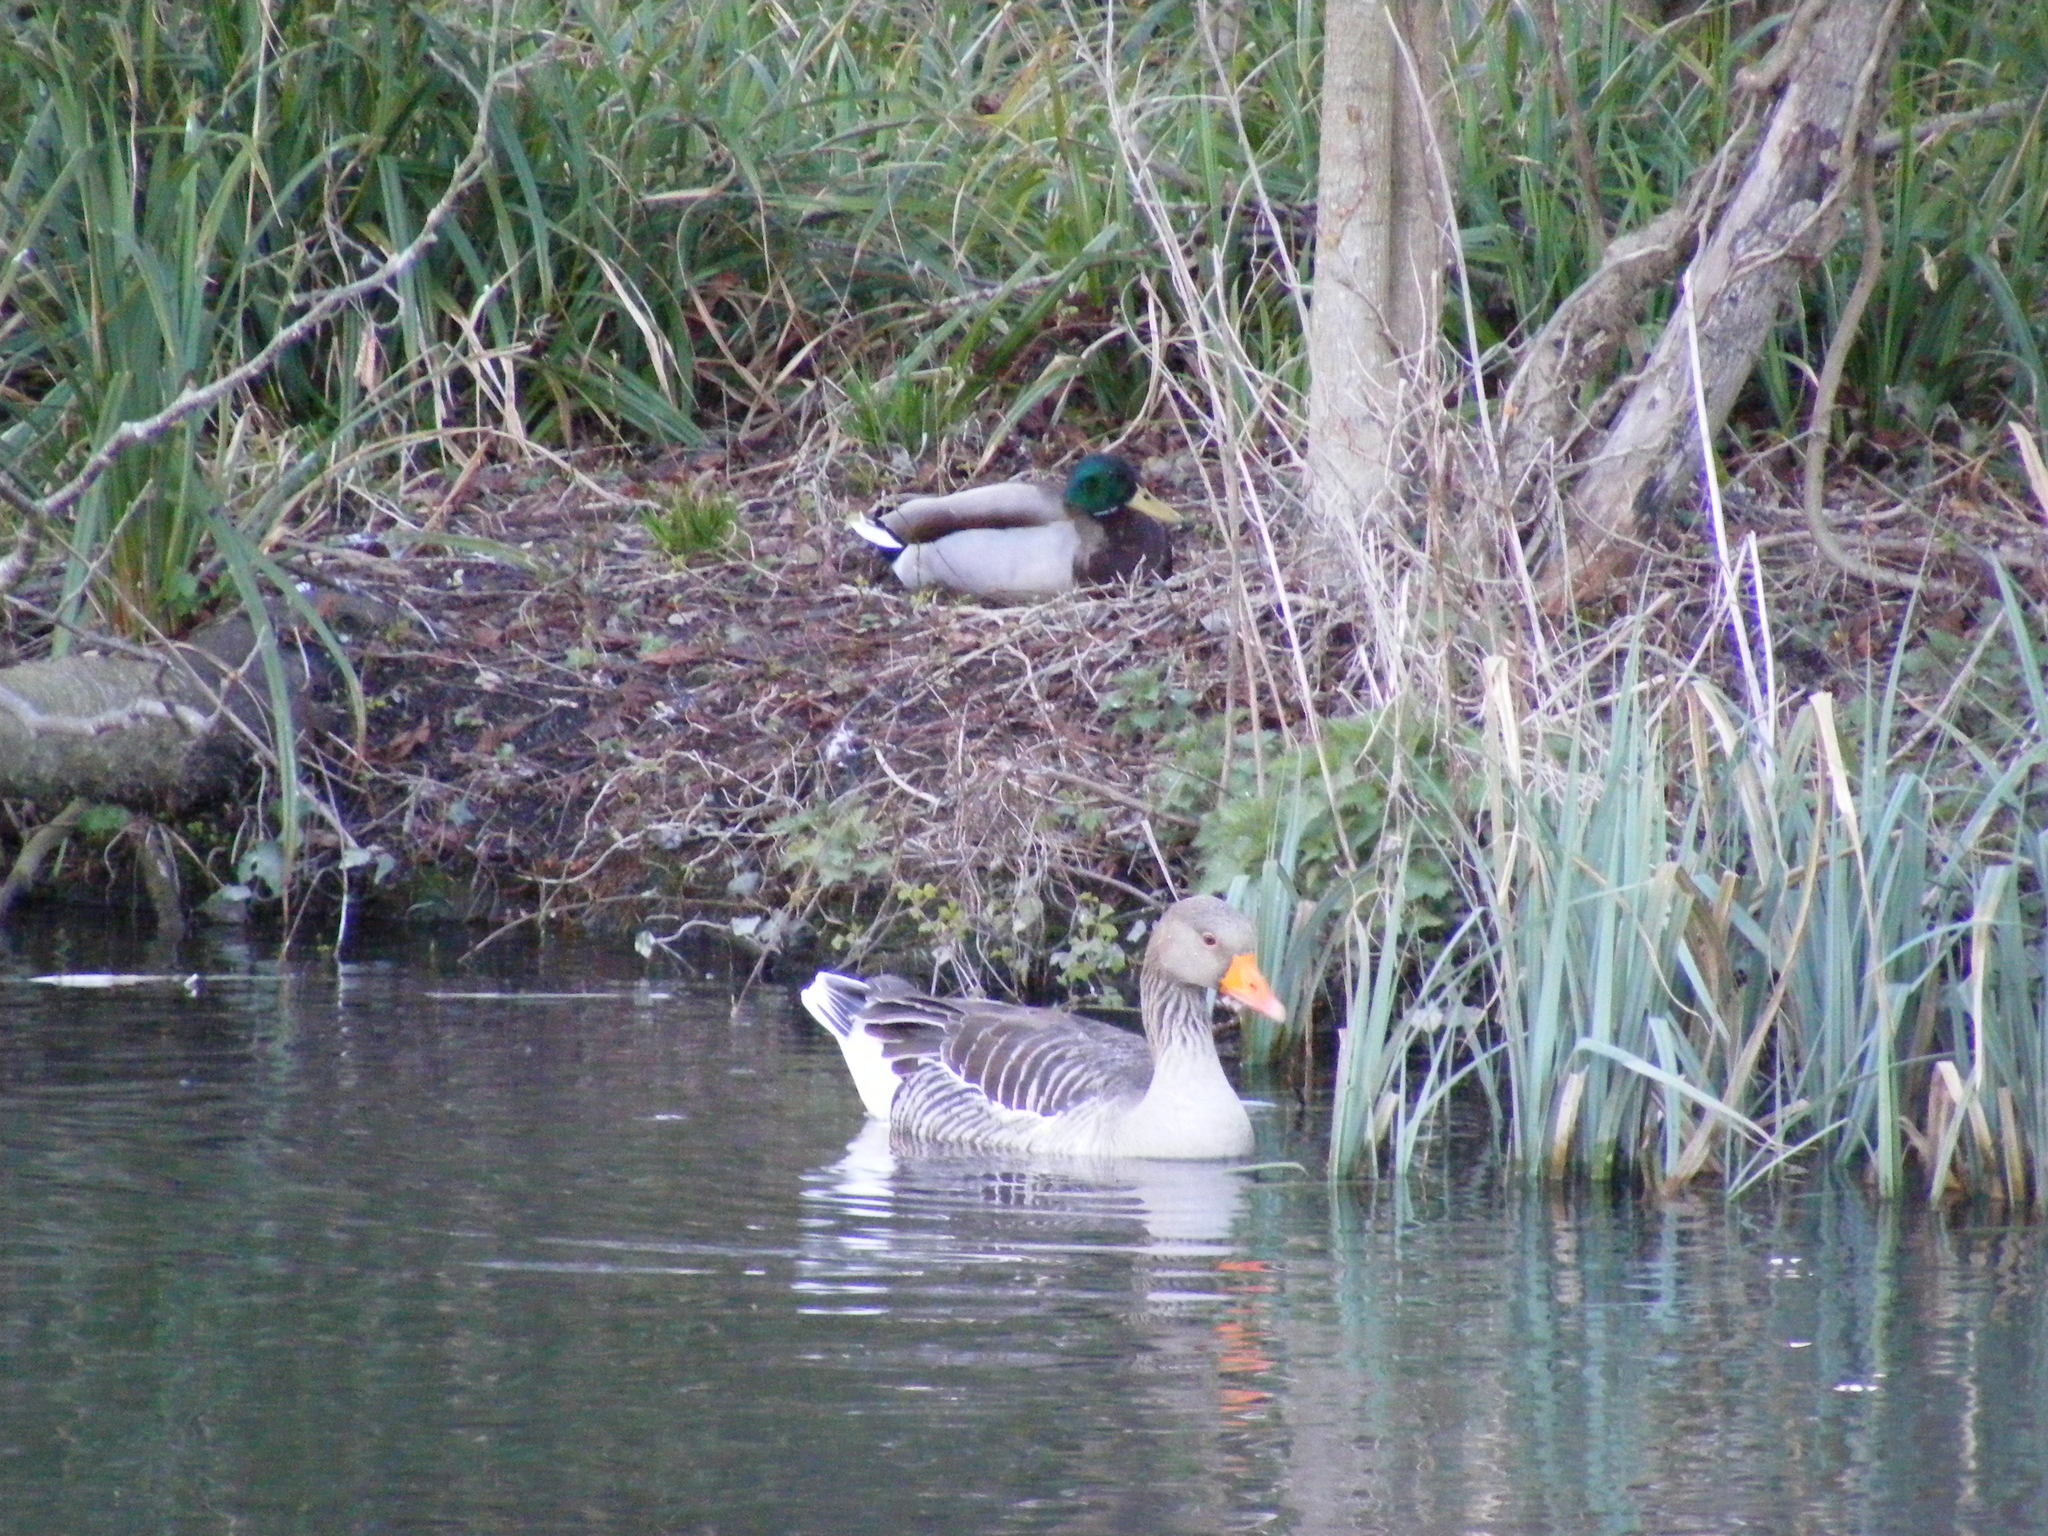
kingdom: Animalia
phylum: Chordata
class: Aves
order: Anseriformes
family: Anatidae
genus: Anser
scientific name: Anser anser
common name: Greylag goose
